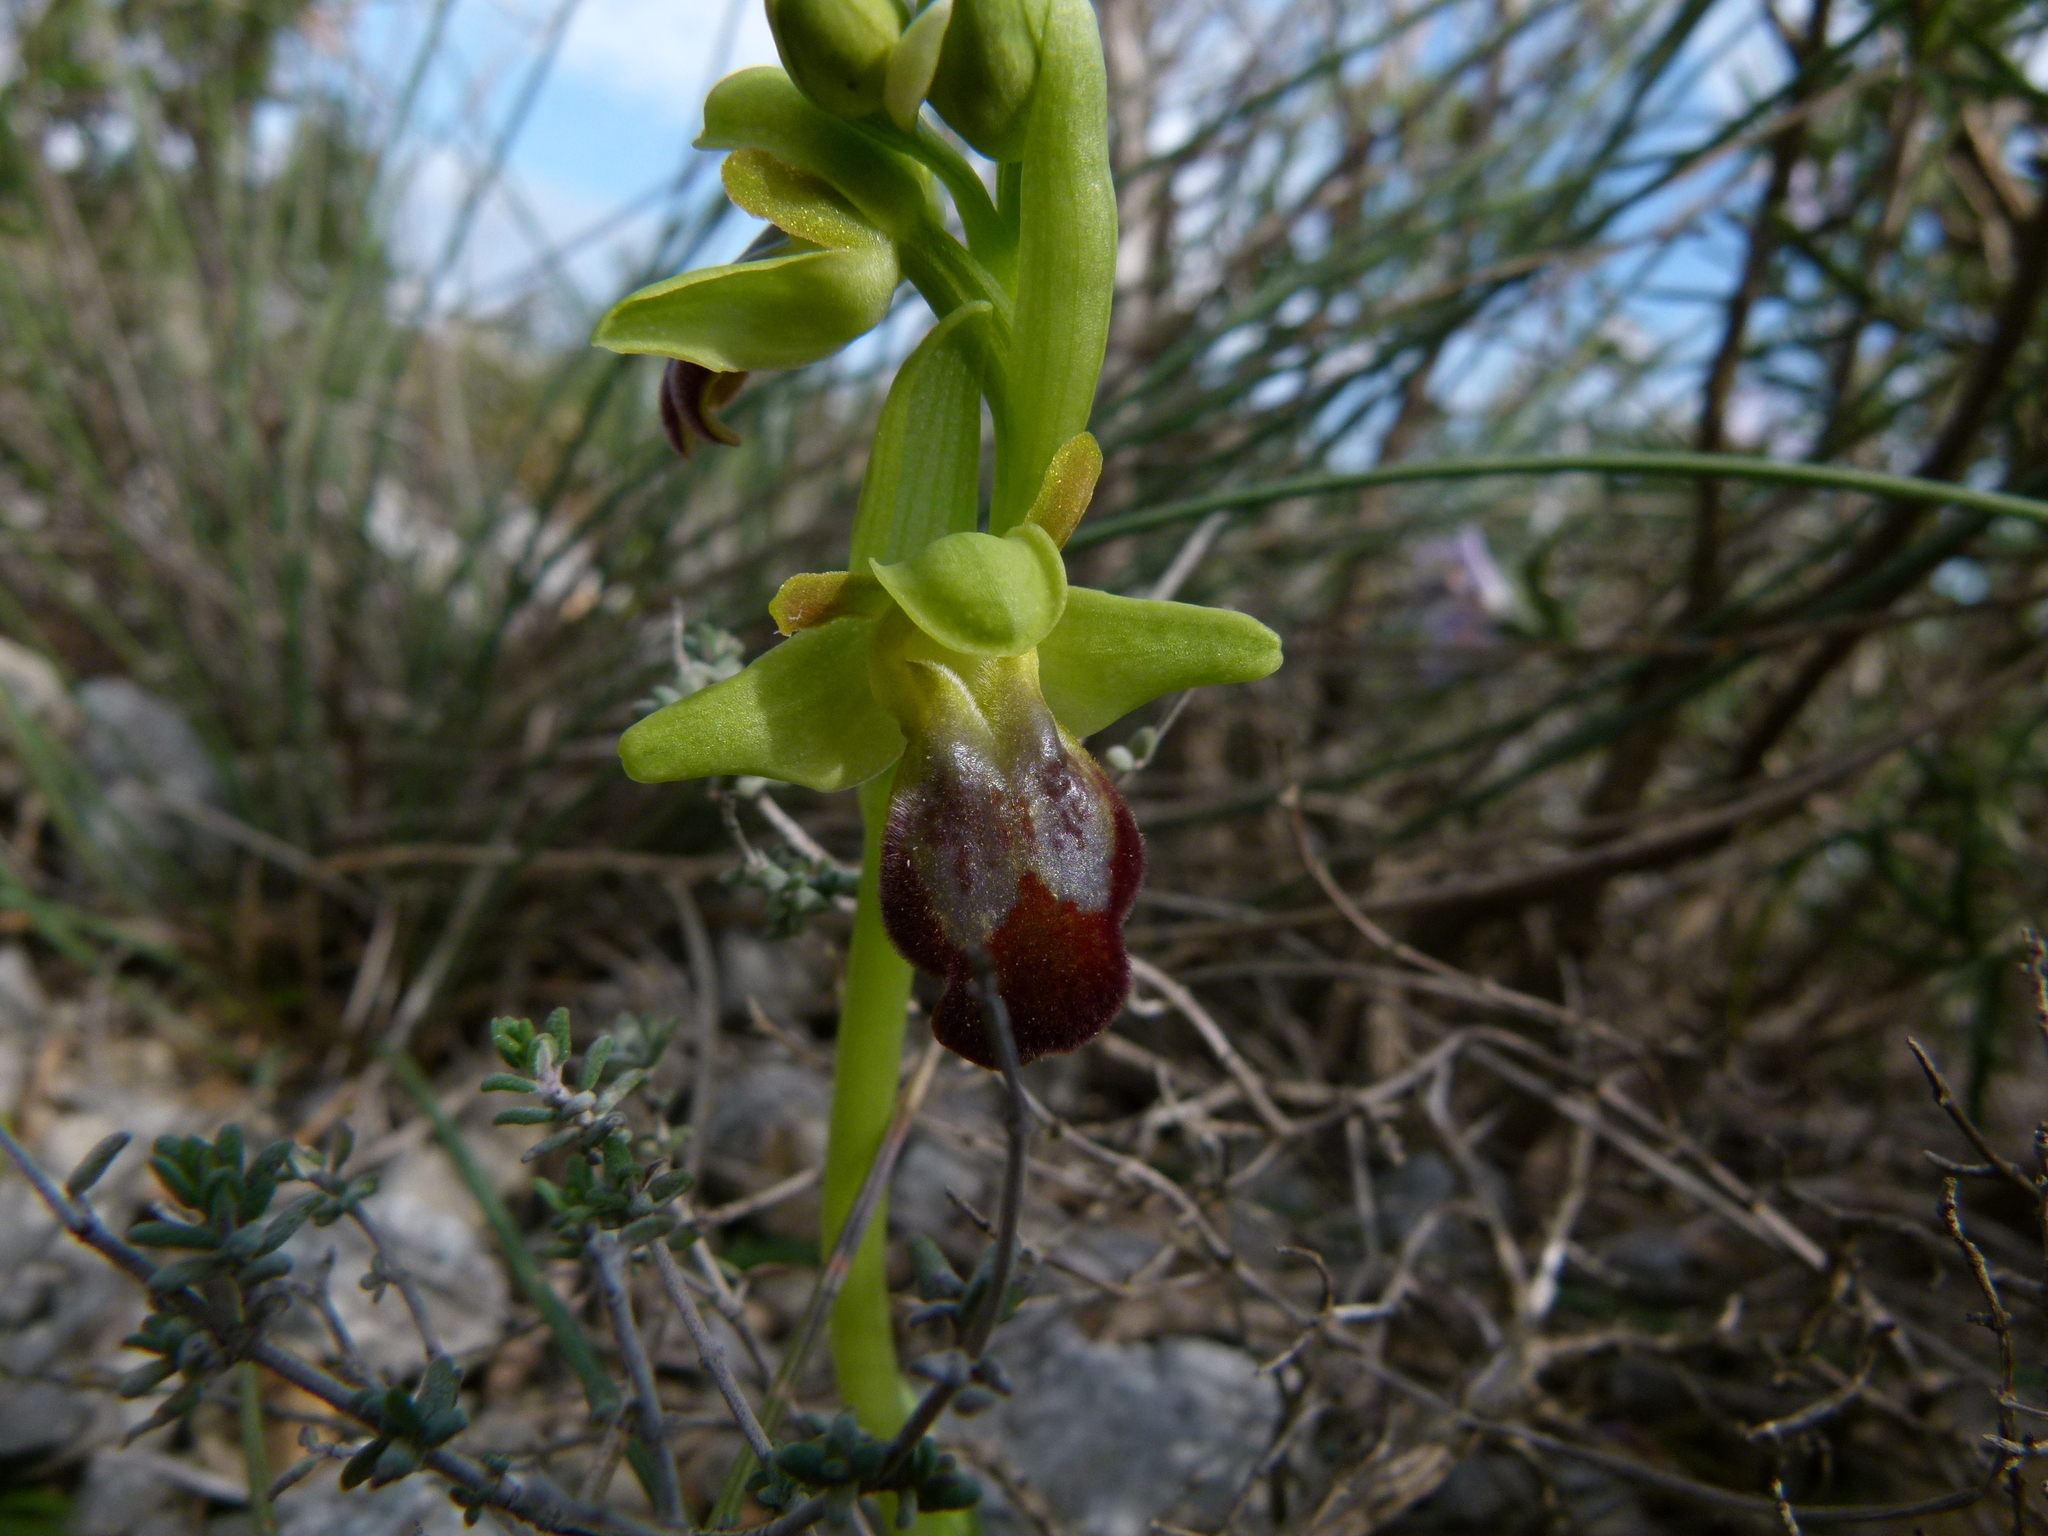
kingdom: Plantae
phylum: Tracheophyta
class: Liliopsida
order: Asparagales
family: Orchidaceae
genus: Ophrys
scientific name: Ophrys fusca
